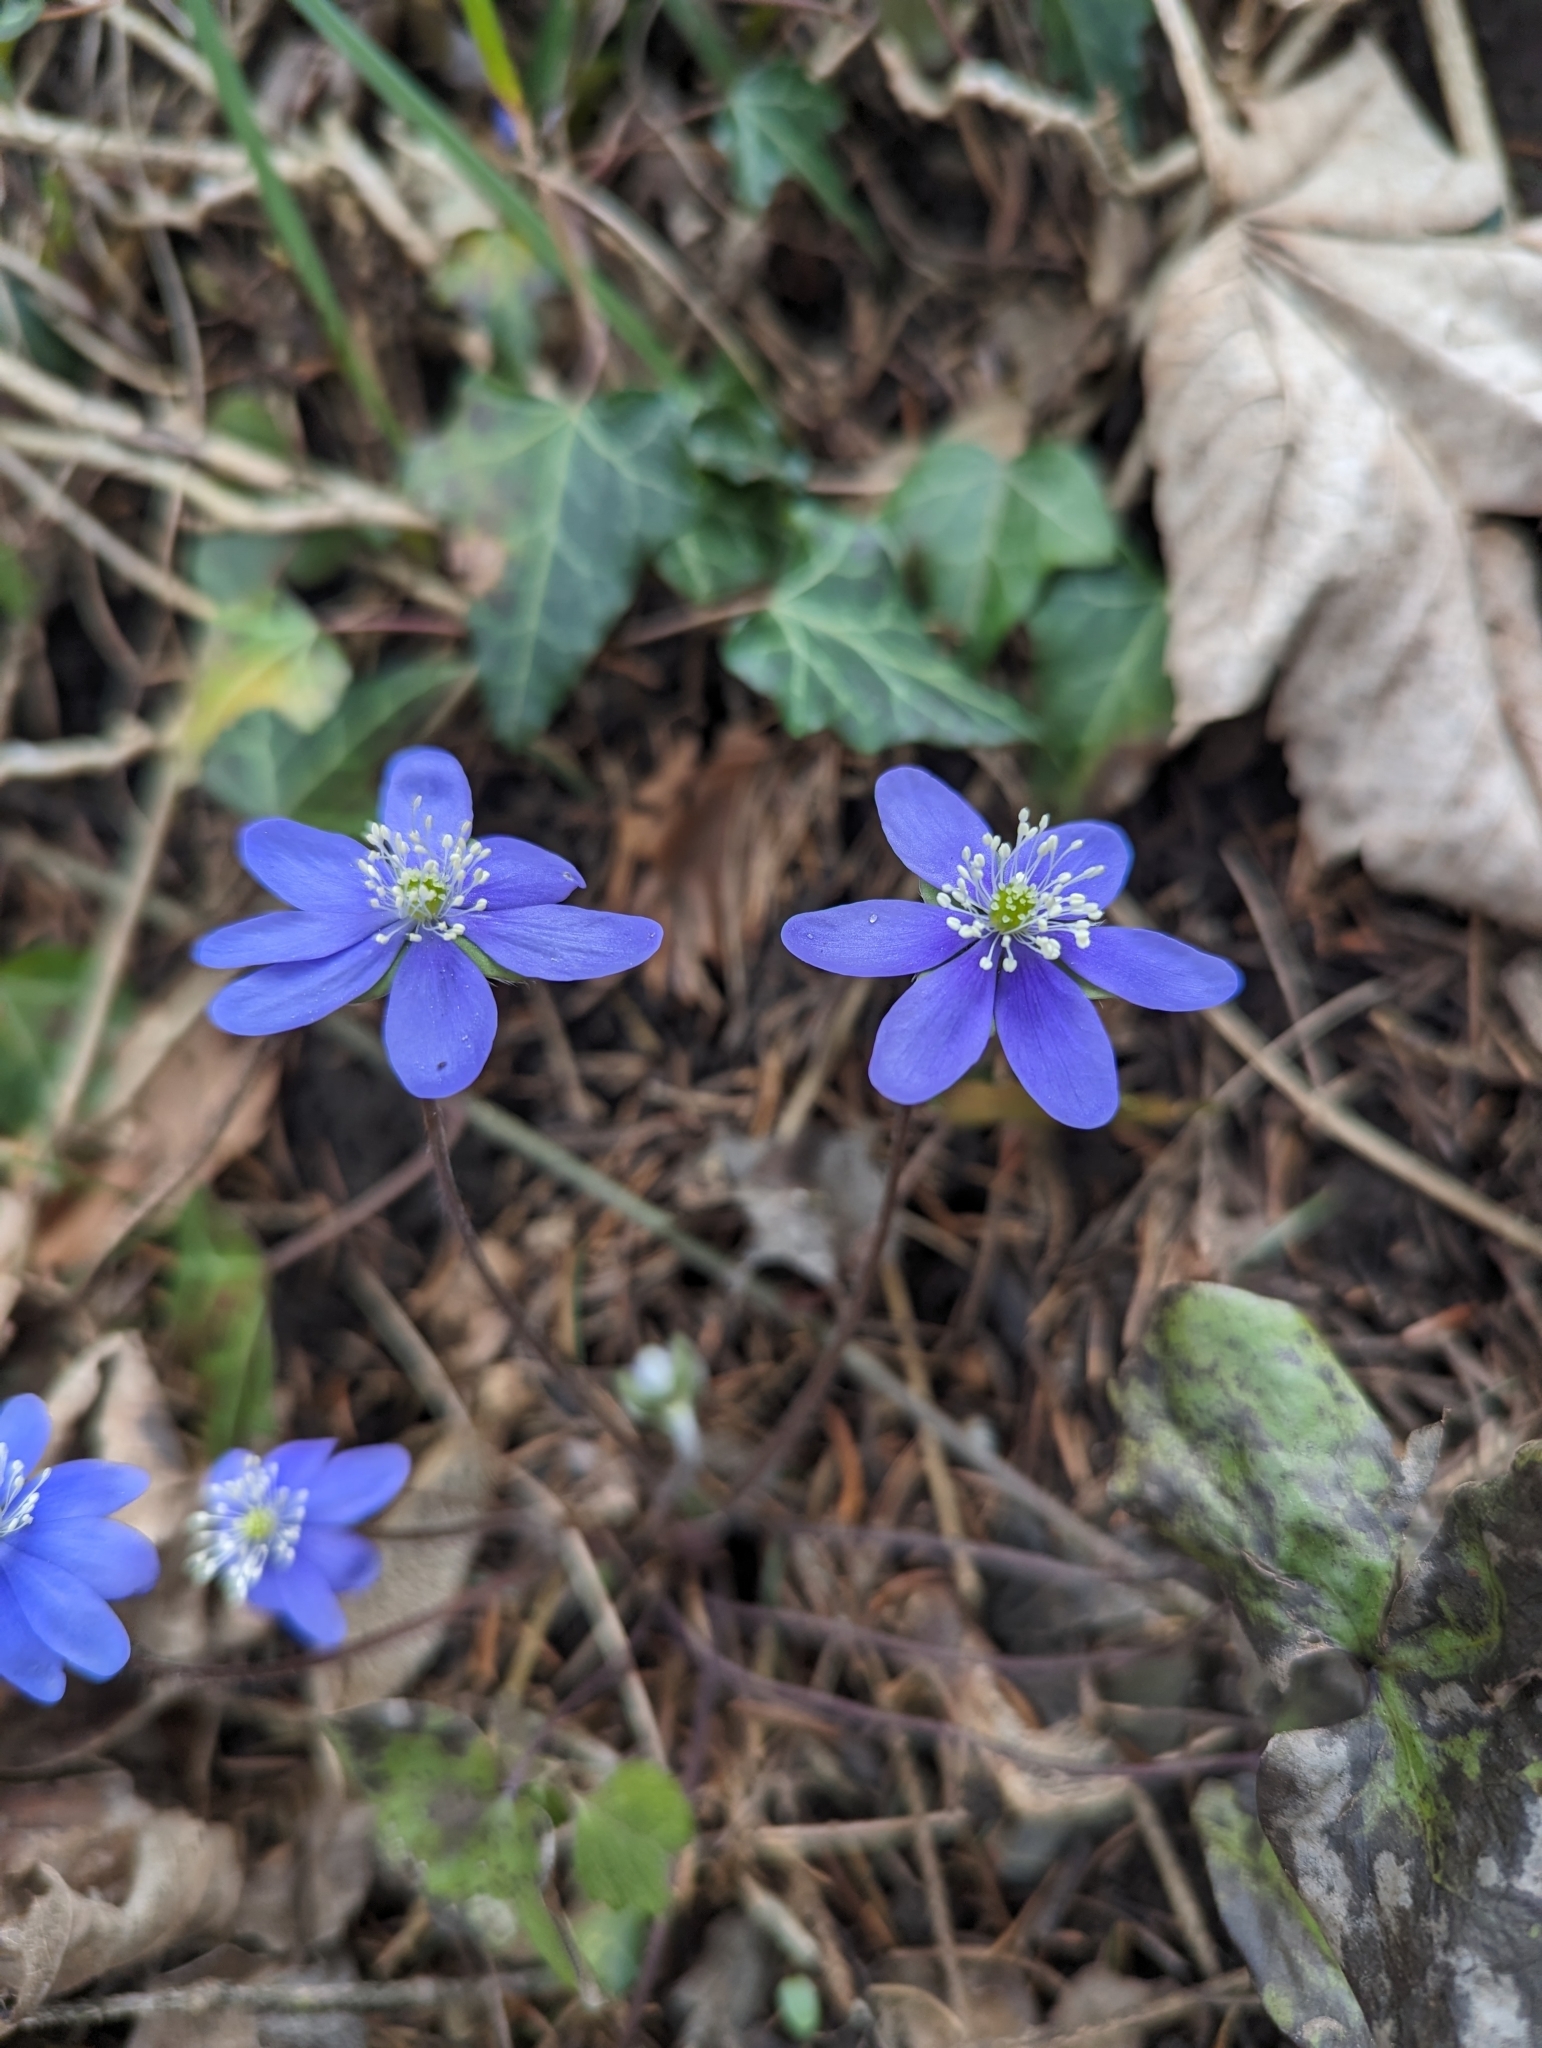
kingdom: Plantae
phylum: Tracheophyta
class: Magnoliopsida
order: Ranunculales
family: Ranunculaceae
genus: Hepatica
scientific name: Hepatica nobilis
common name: Liverleaf
